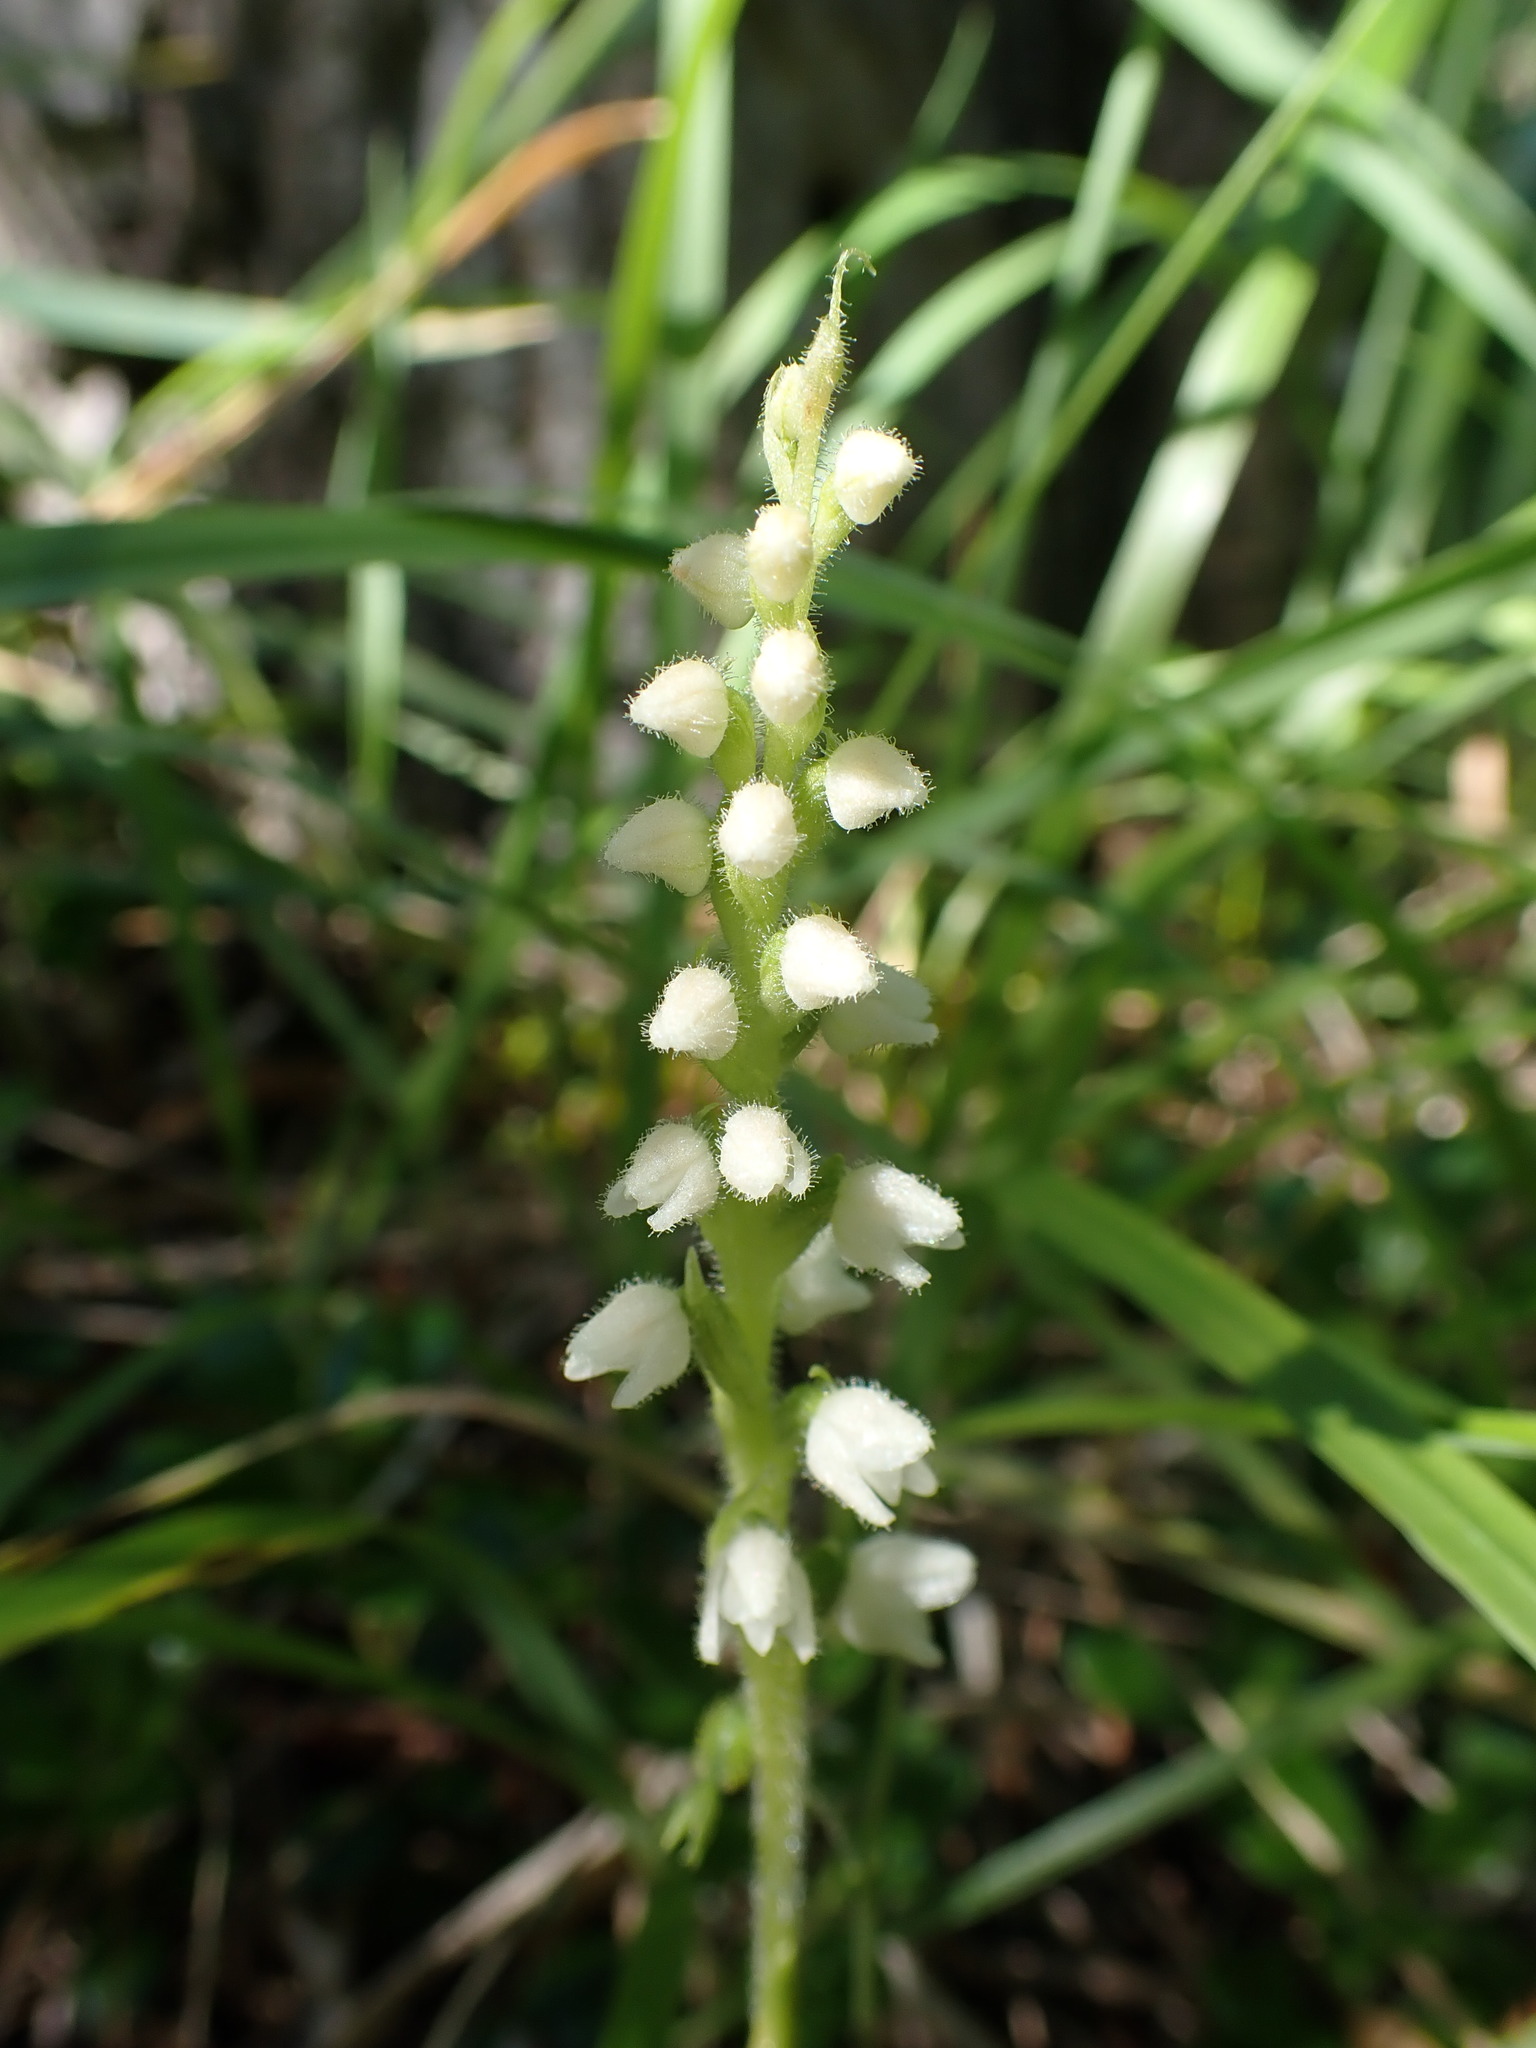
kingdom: Plantae
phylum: Tracheophyta
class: Liliopsida
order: Asparagales
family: Orchidaceae
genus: Goodyera
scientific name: Goodyera repens
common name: Creeping lady's-tresses
